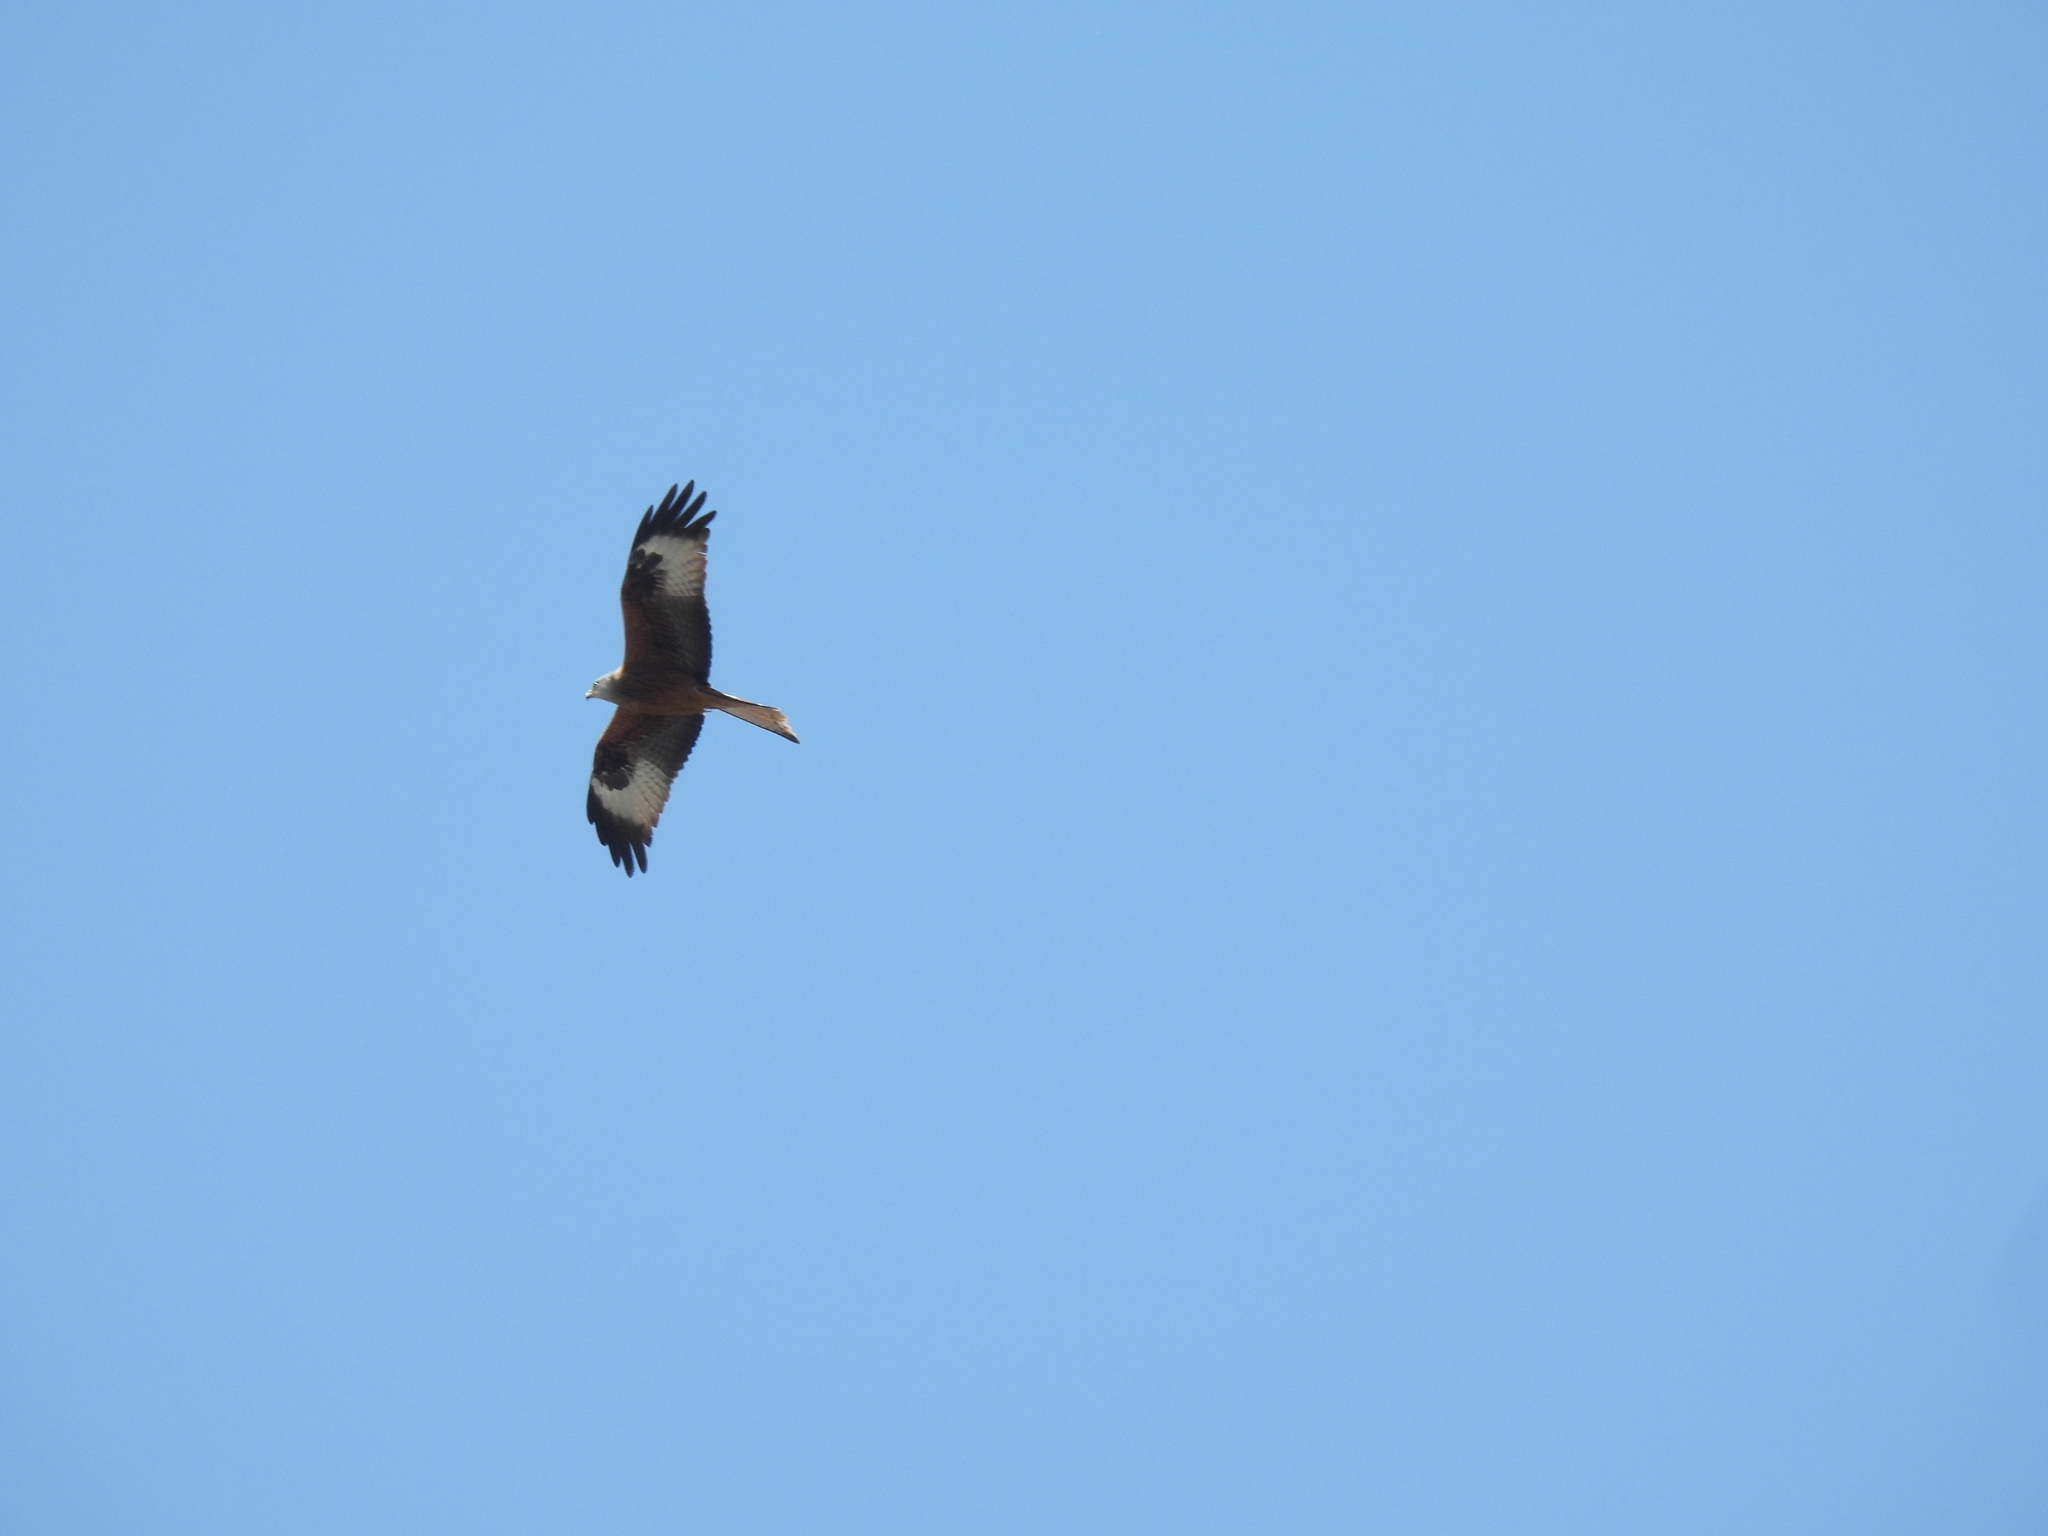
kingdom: Animalia
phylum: Chordata
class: Aves
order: Accipitriformes
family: Accipitridae
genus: Milvus
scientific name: Milvus milvus
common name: Red kite
